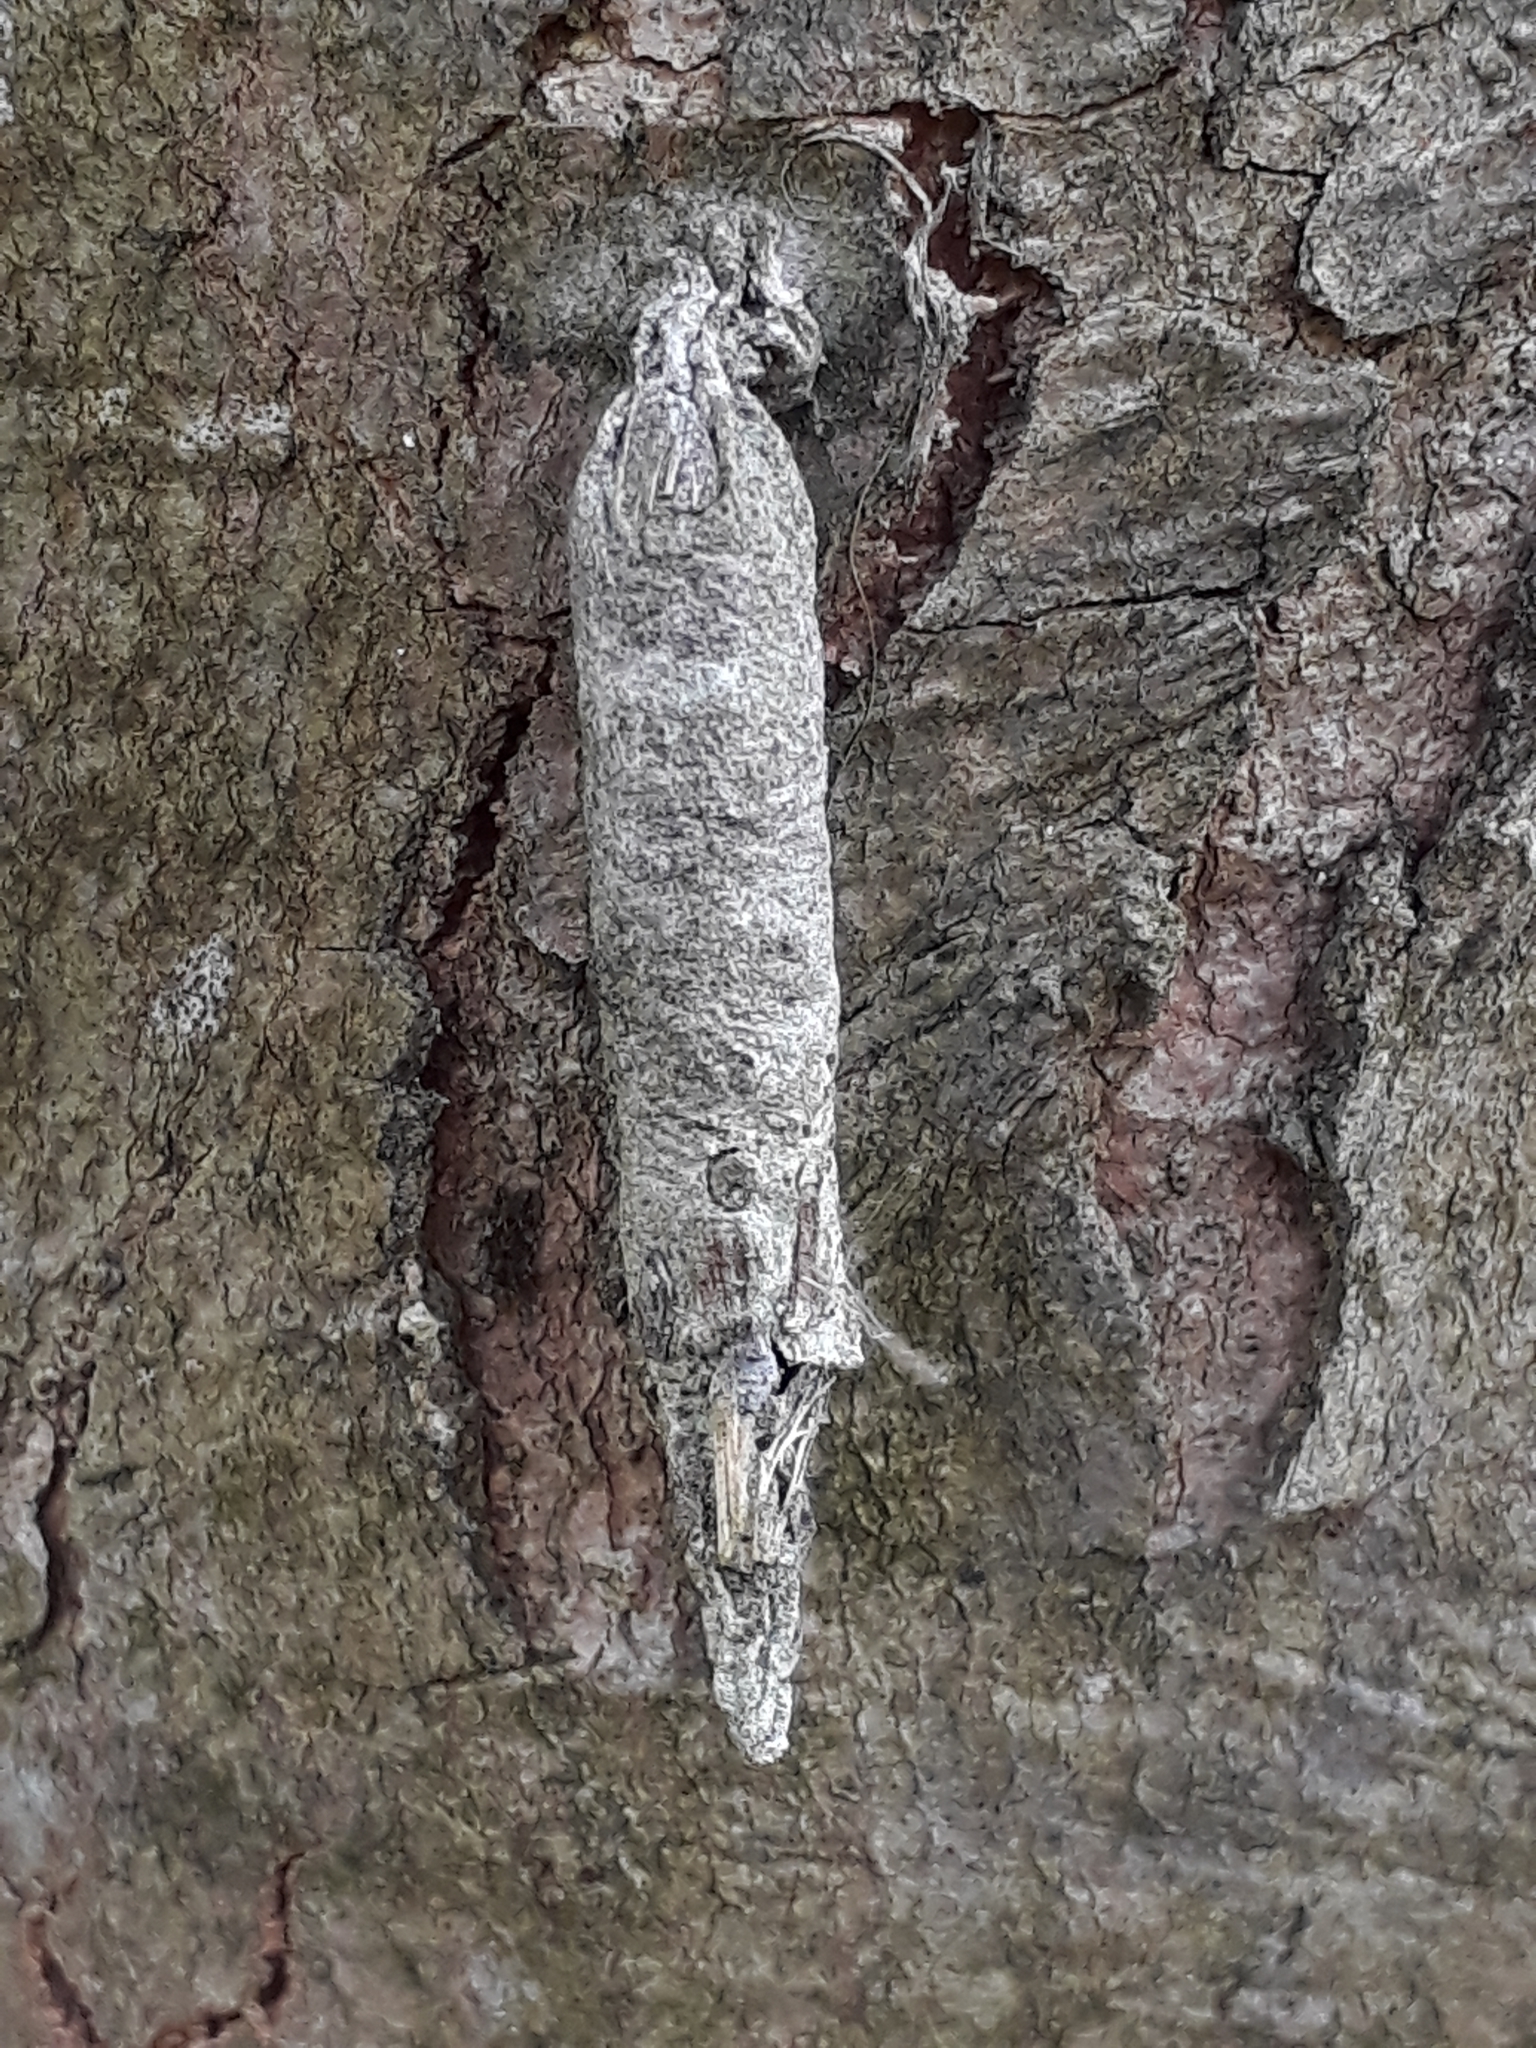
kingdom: Animalia
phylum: Arthropoda
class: Insecta
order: Lepidoptera
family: Psychidae
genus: Liothula
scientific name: Liothula omnivora
